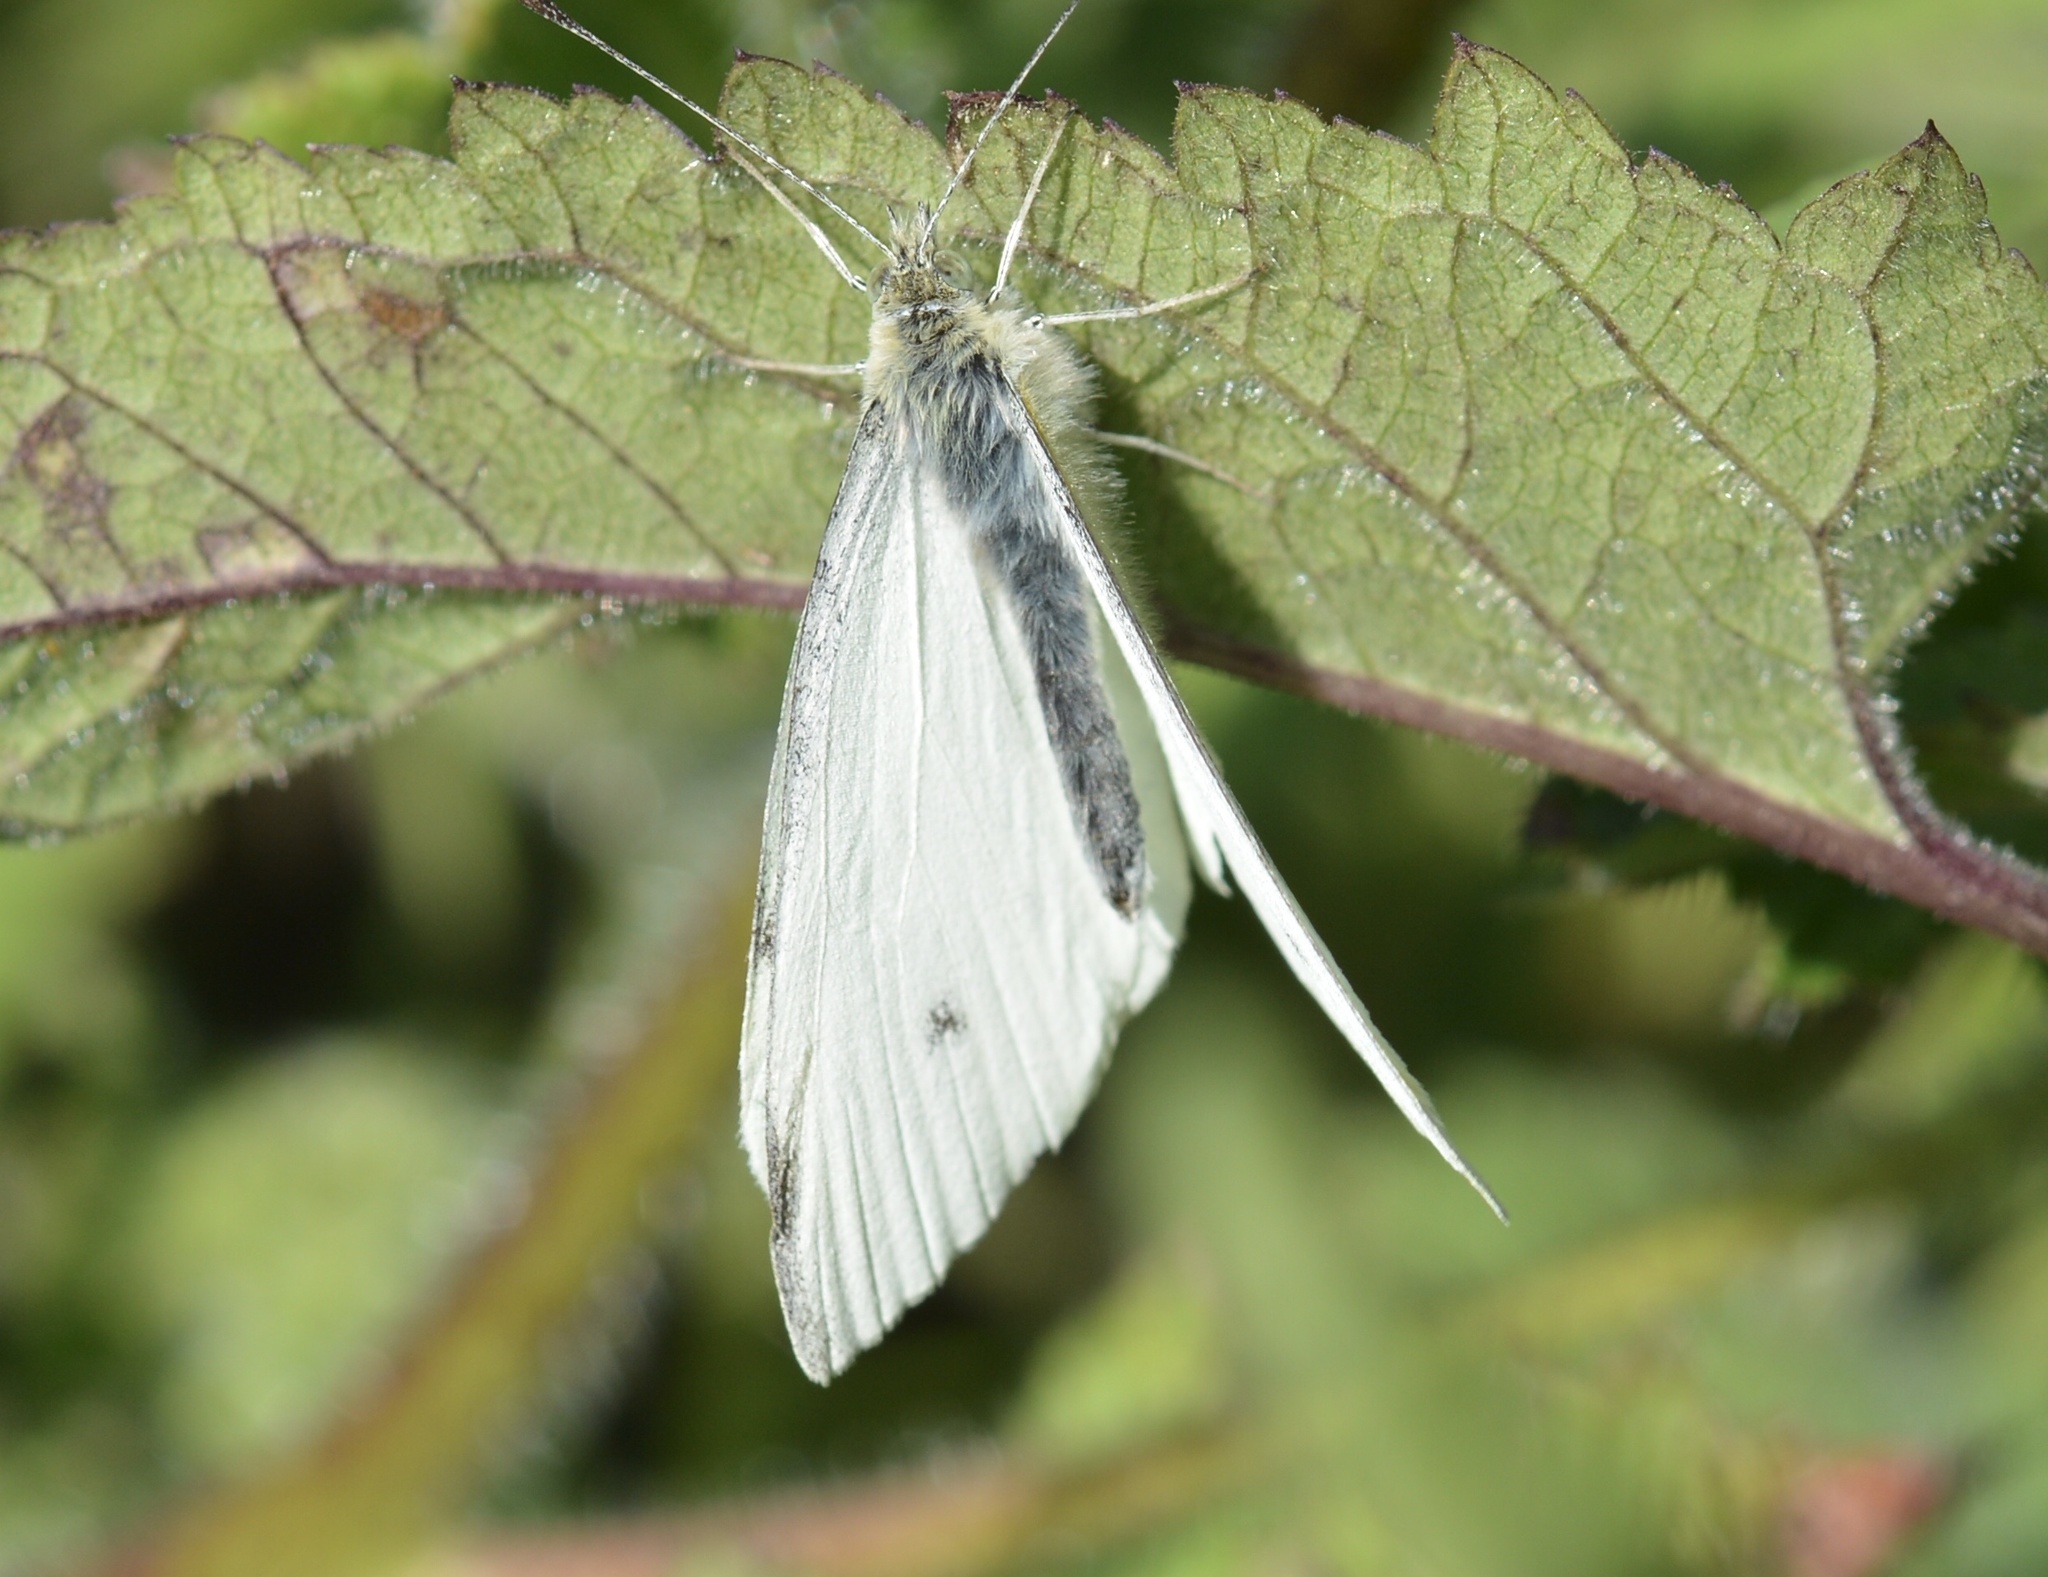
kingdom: Animalia
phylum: Arthropoda
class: Insecta
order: Lepidoptera
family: Pieridae
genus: Pieris
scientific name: Pieris rapae
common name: Small white
